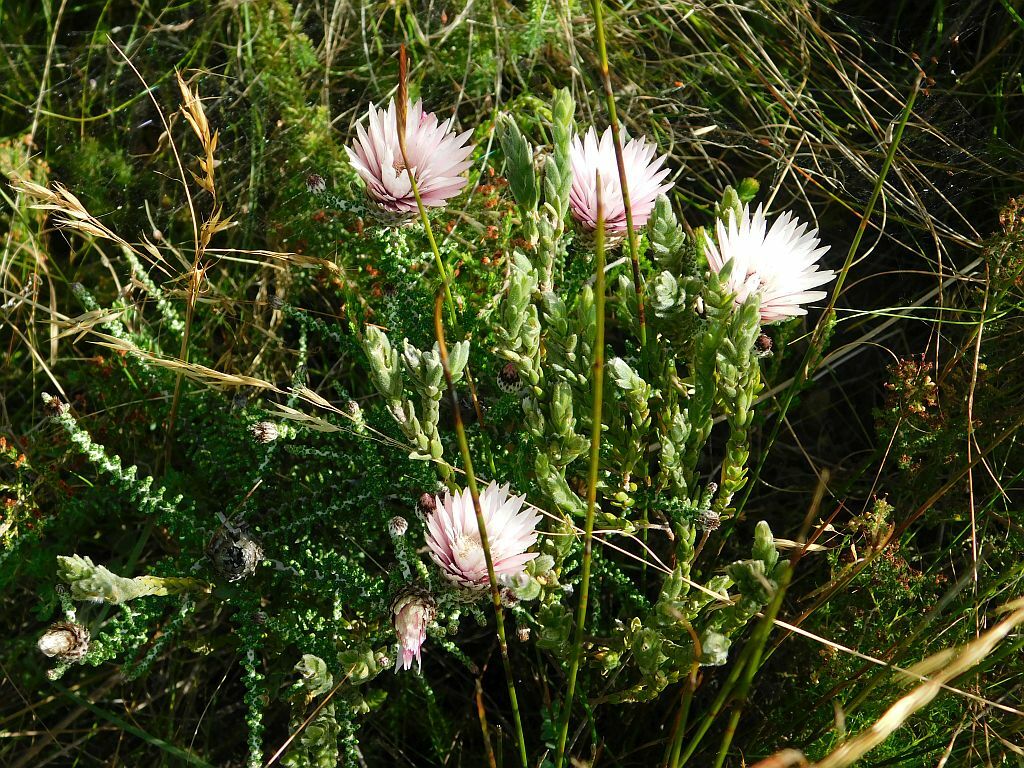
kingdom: Plantae
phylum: Tracheophyta
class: Magnoliopsida
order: Asterales
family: Asteraceae
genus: Phaenocoma
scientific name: Phaenocoma prolifera
